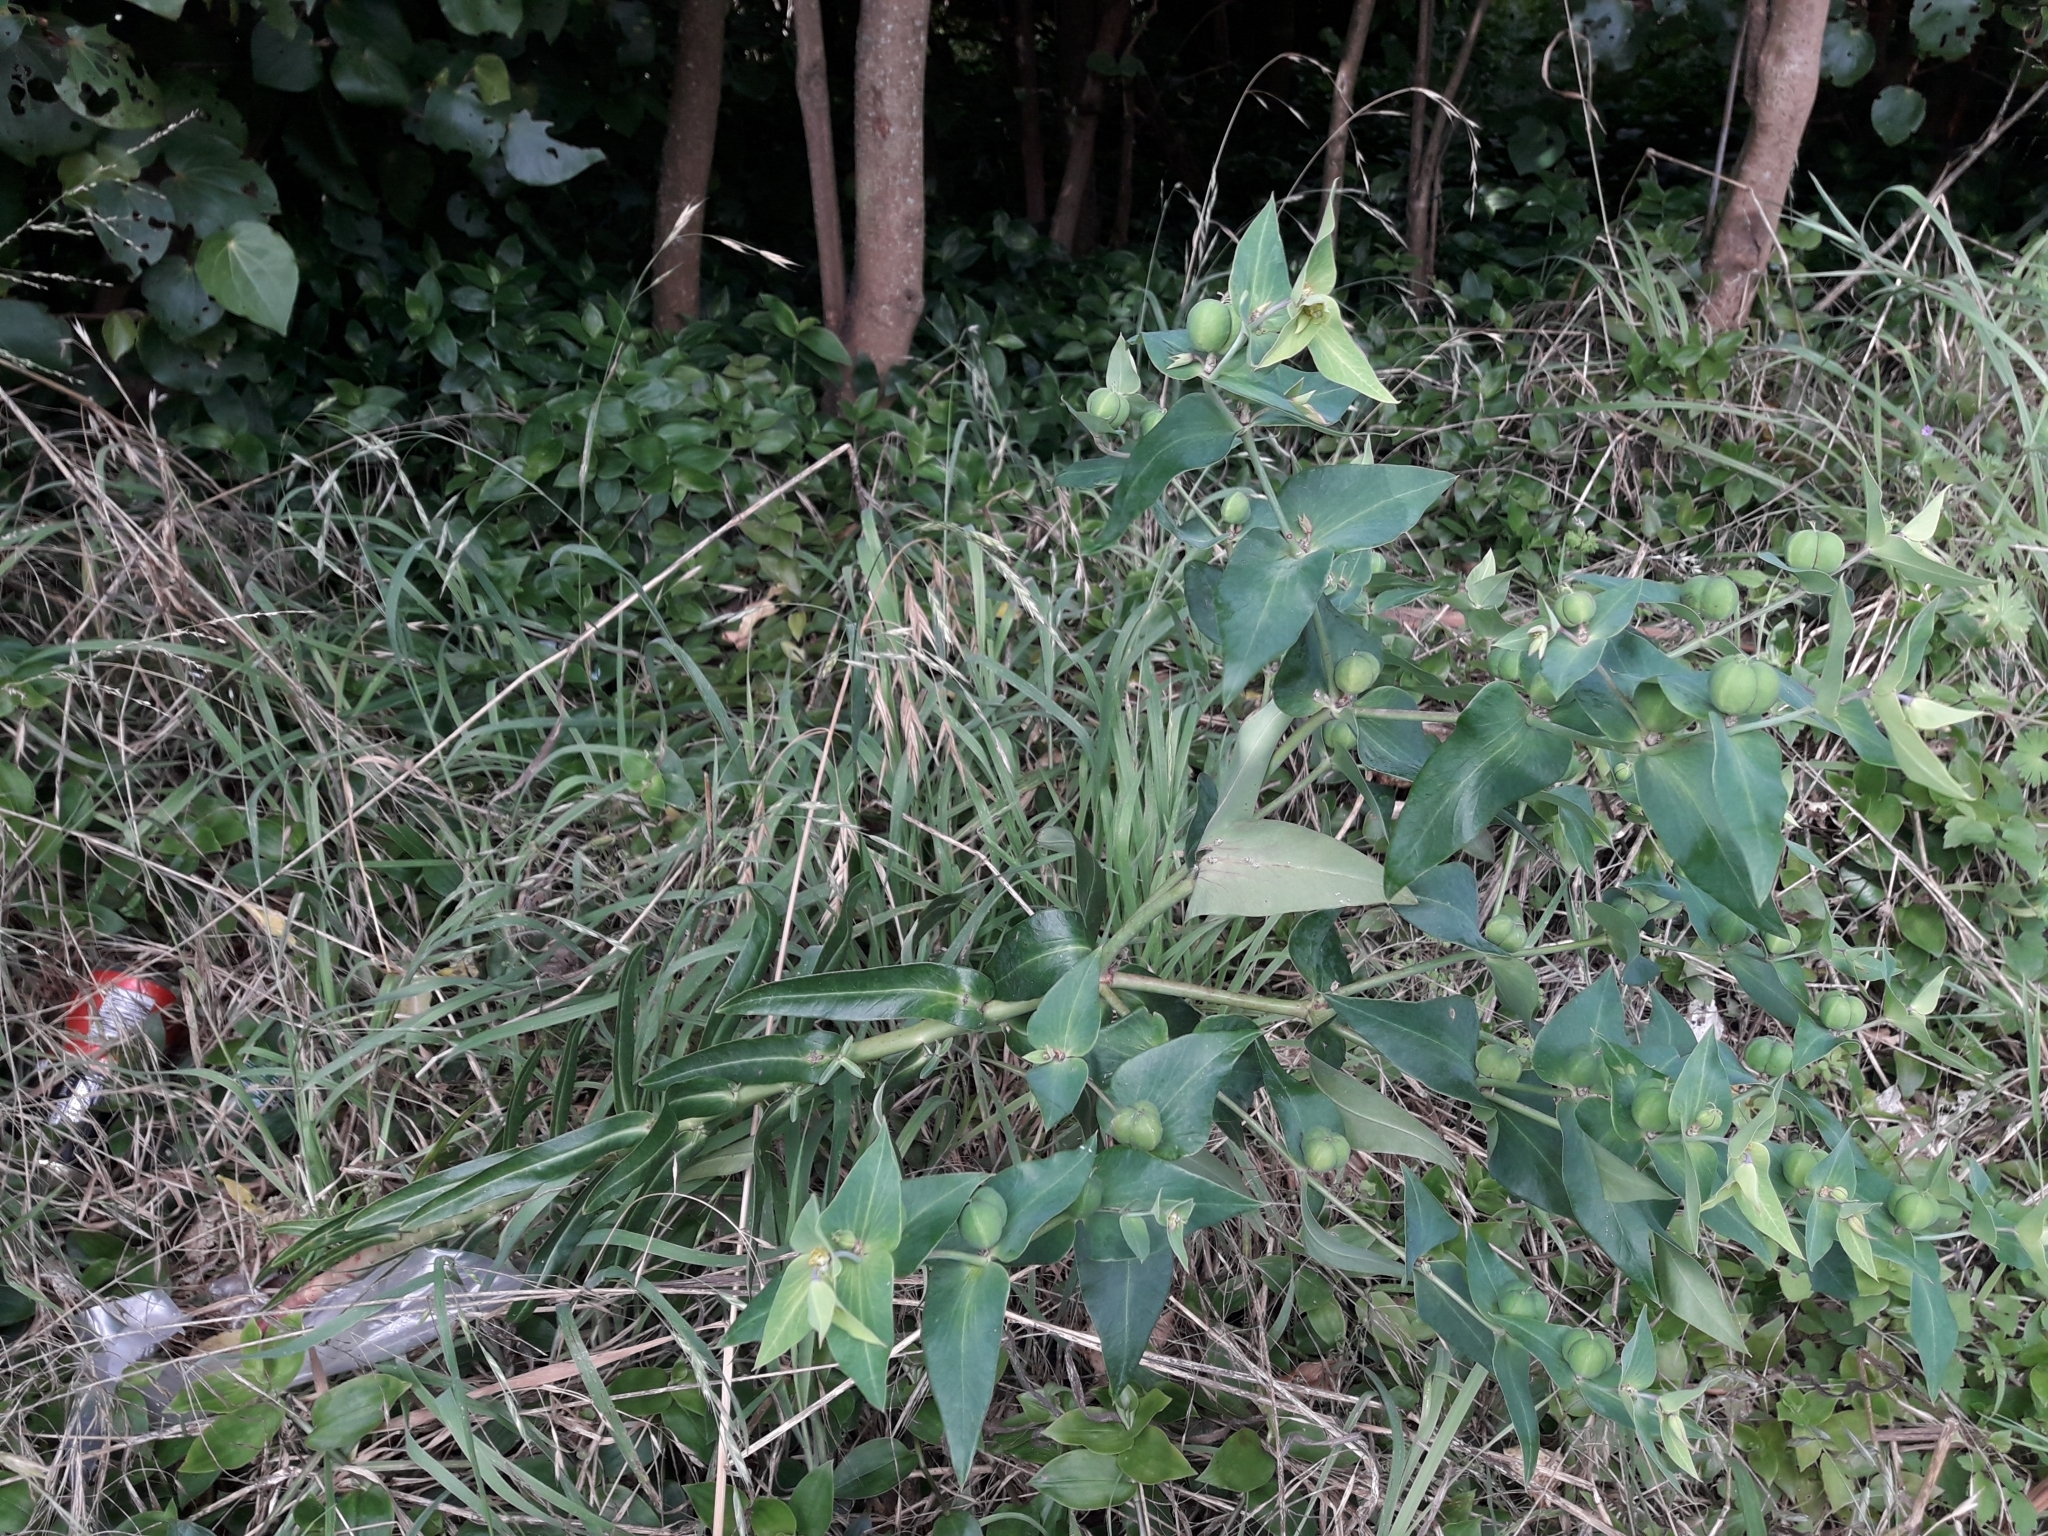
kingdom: Plantae
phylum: Tracheophyta
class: Magnoliopsida
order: Malpighiales
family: Euphorbiaceae
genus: Euphorbia
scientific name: Euphorbia lathyris
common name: Caper spurge
